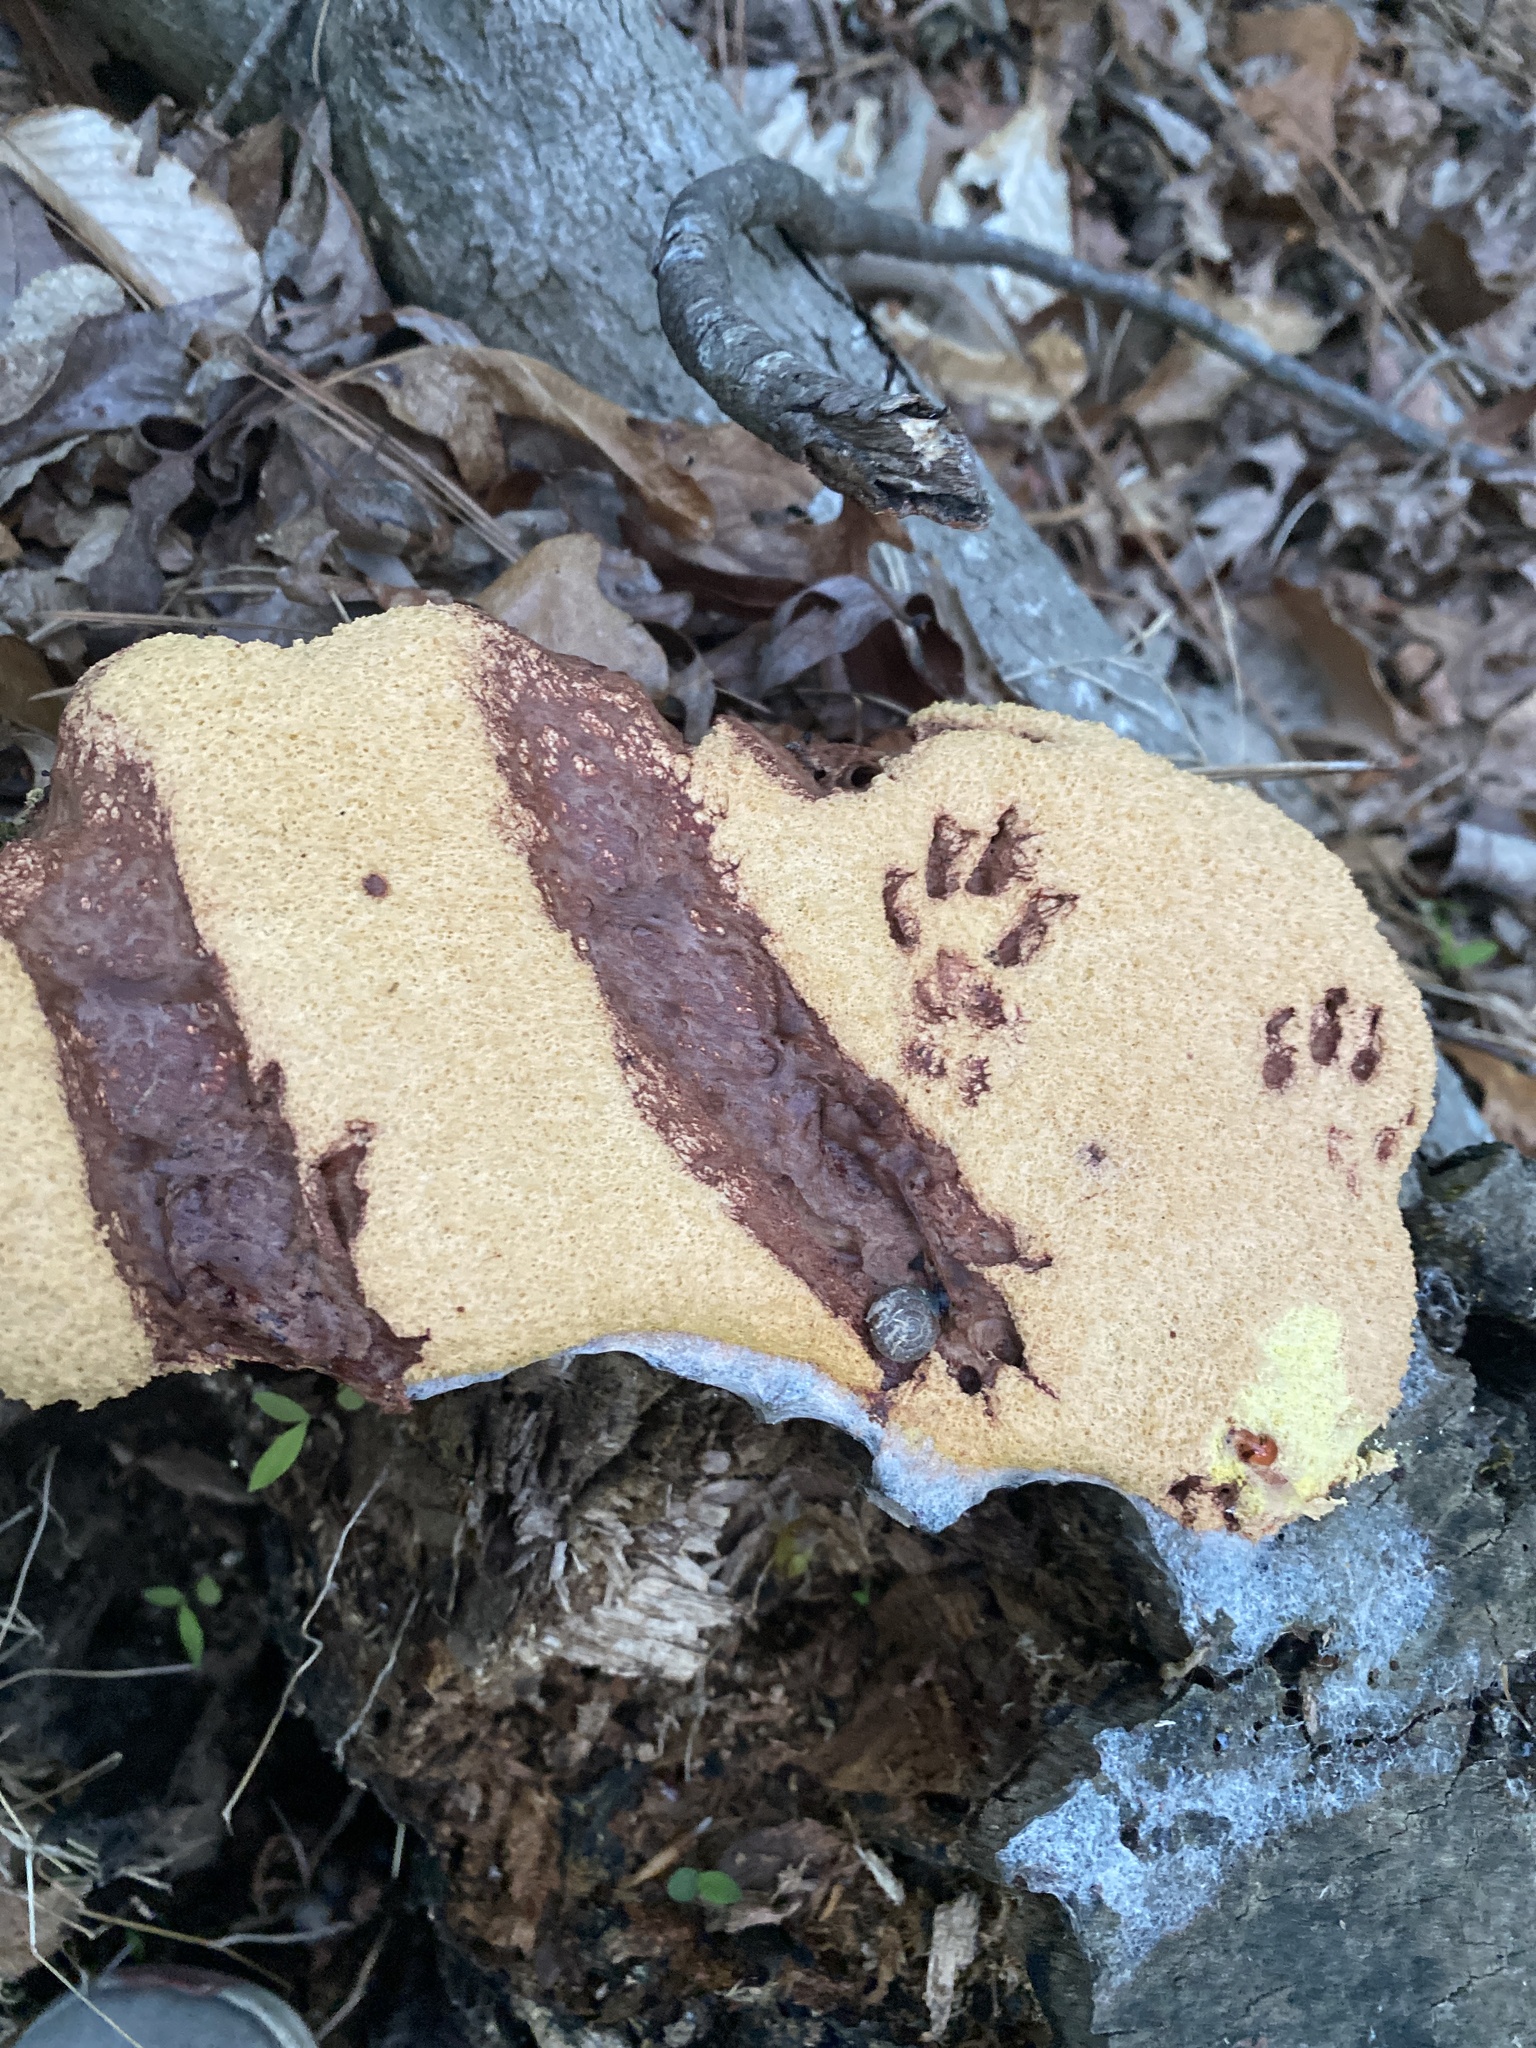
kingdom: Protozoa
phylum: Mycetozoa
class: Myxomycetes
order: Physarales
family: Physaraceae
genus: Fuligo
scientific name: Fuligo septica
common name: Dog vomit slime mold
